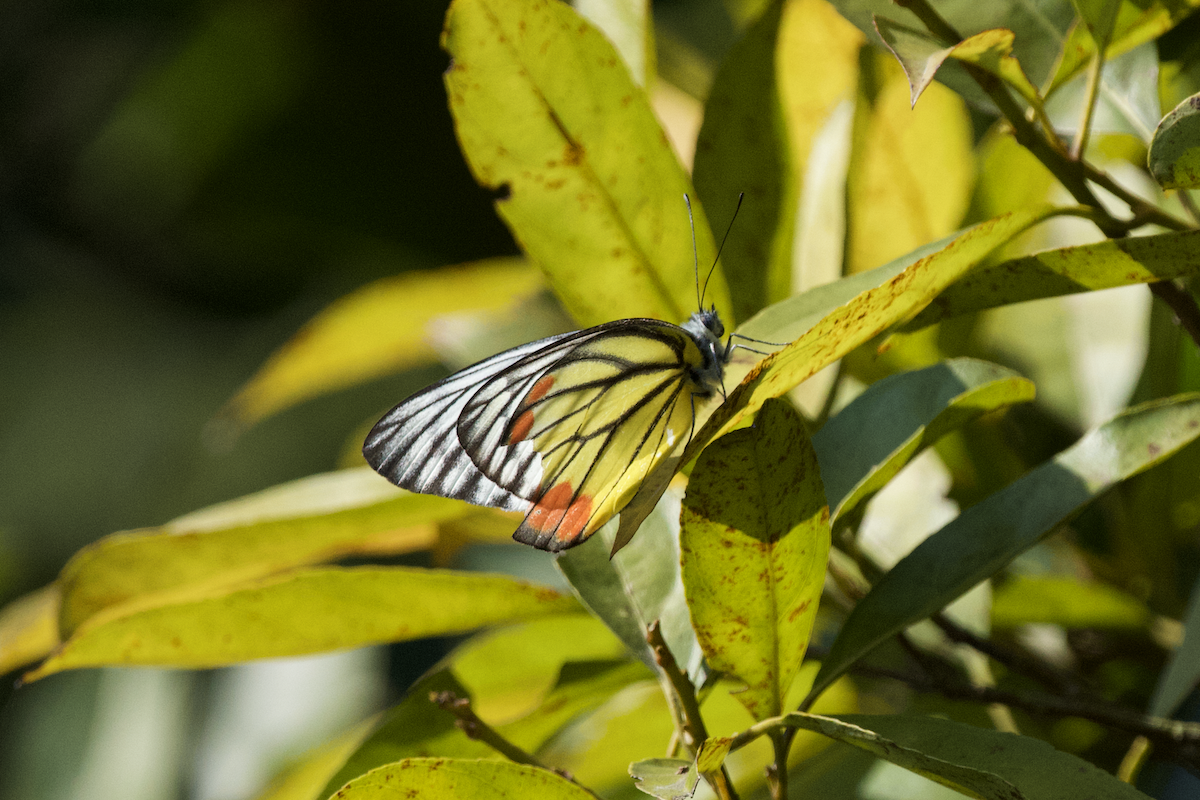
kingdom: Animalia
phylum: Arthropoda
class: Insecta
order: Lepidoptera
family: Pieridae
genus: Delias
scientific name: Delias hyparete
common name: Painted jezebel
